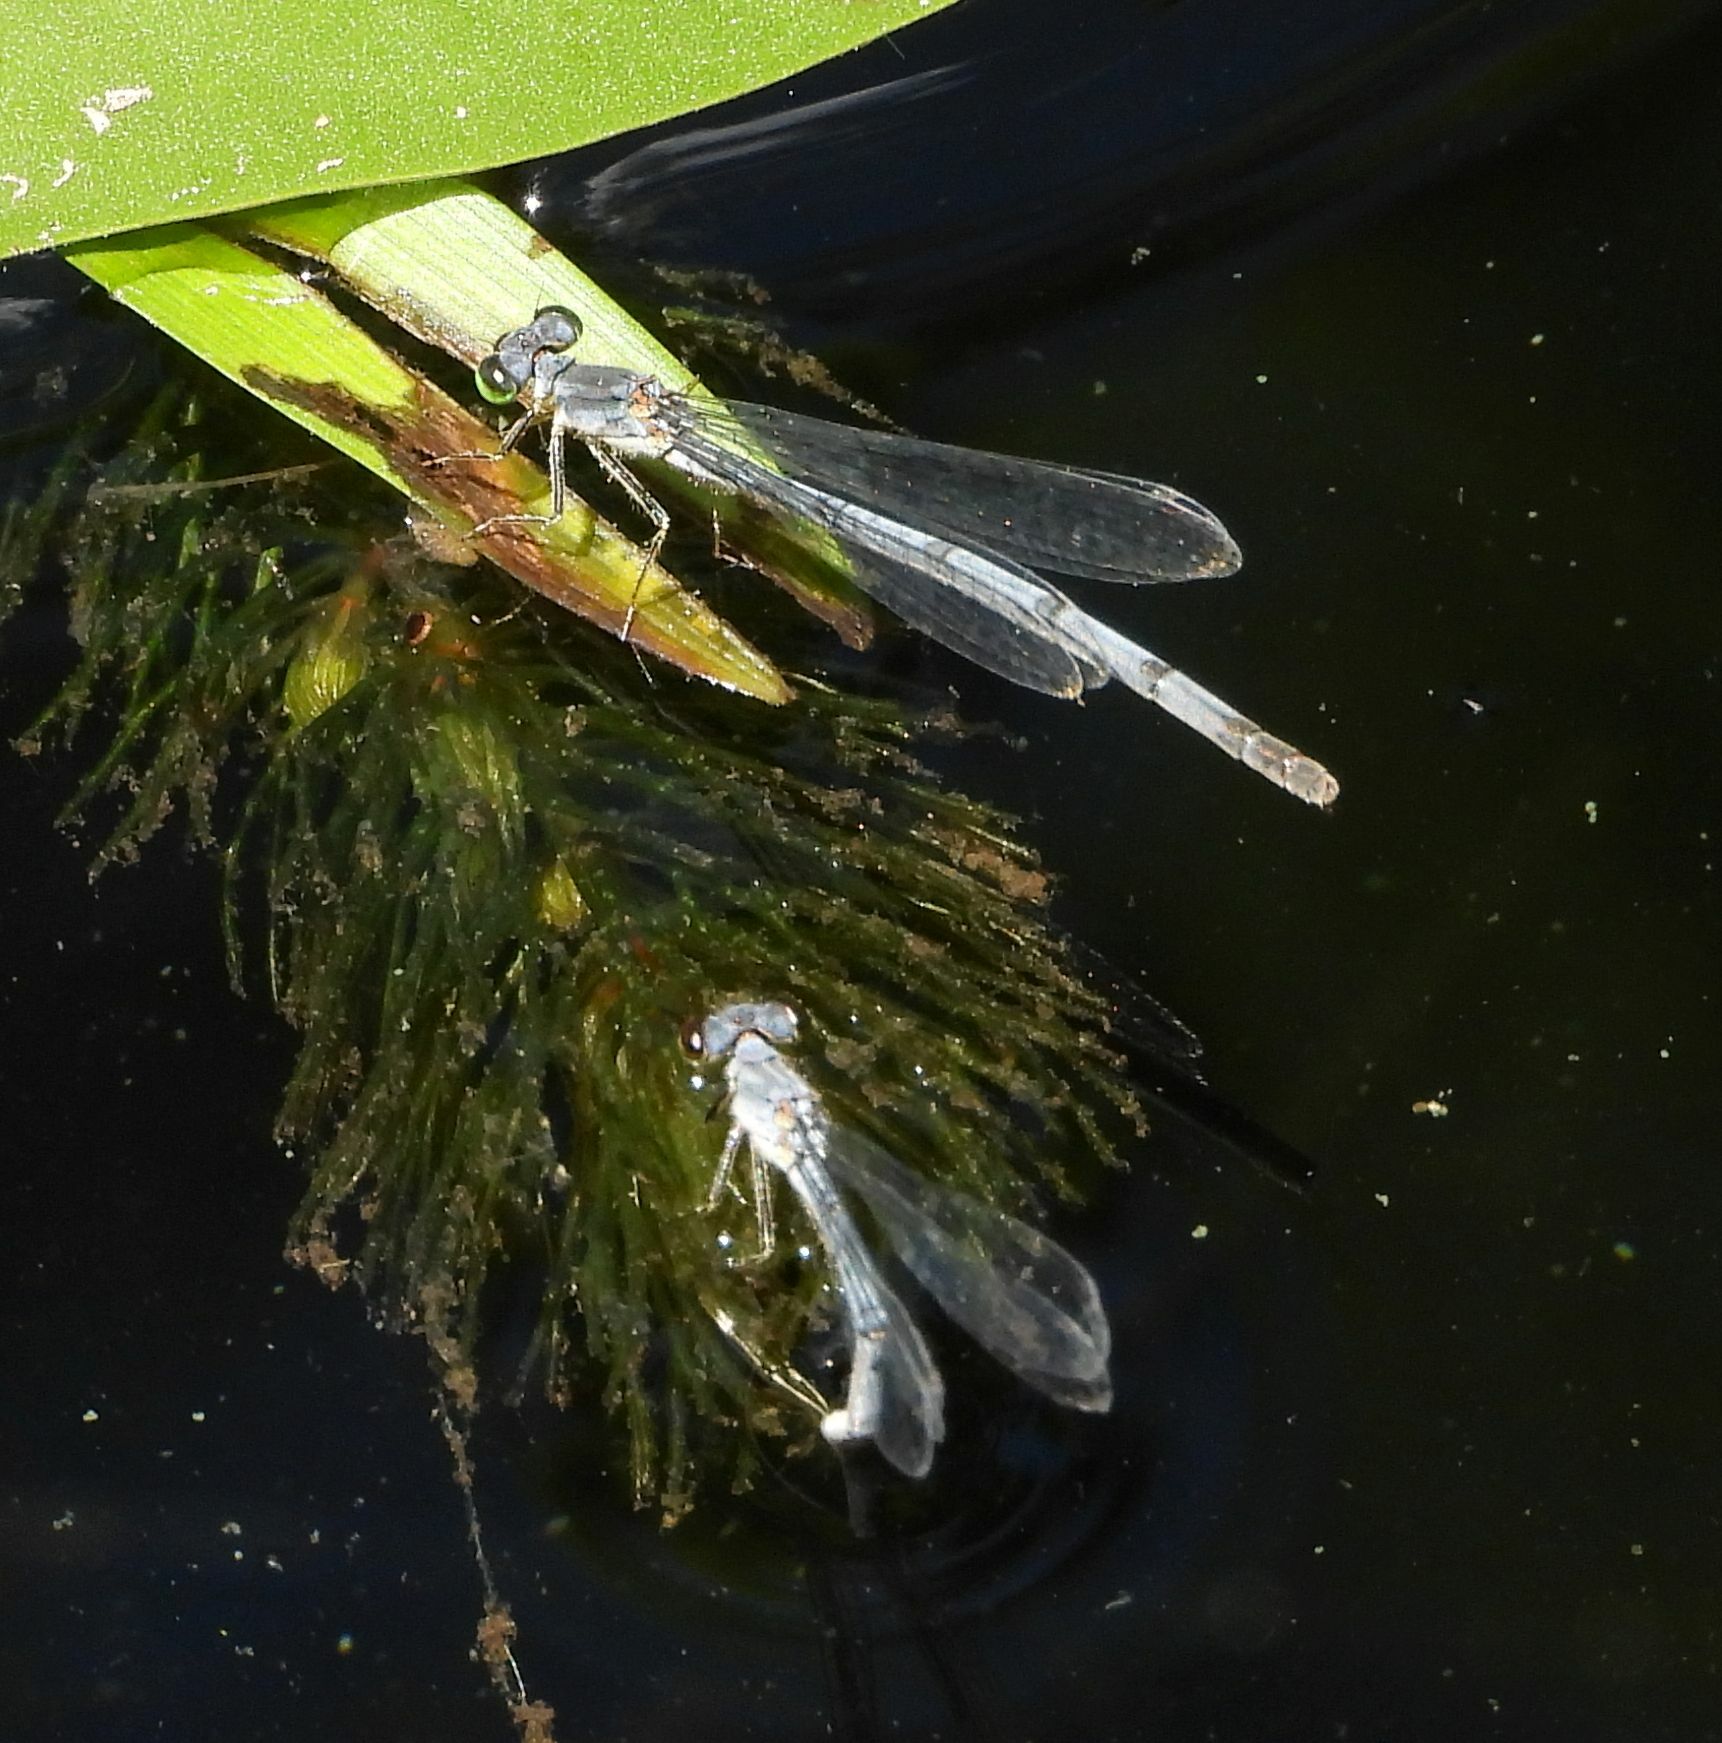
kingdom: Animalia
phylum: Arthropoda
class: Insecta
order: Odonata
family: Coenagrionidae
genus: Ischnura
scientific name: Ischnura verticalis
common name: Eastern forktail
